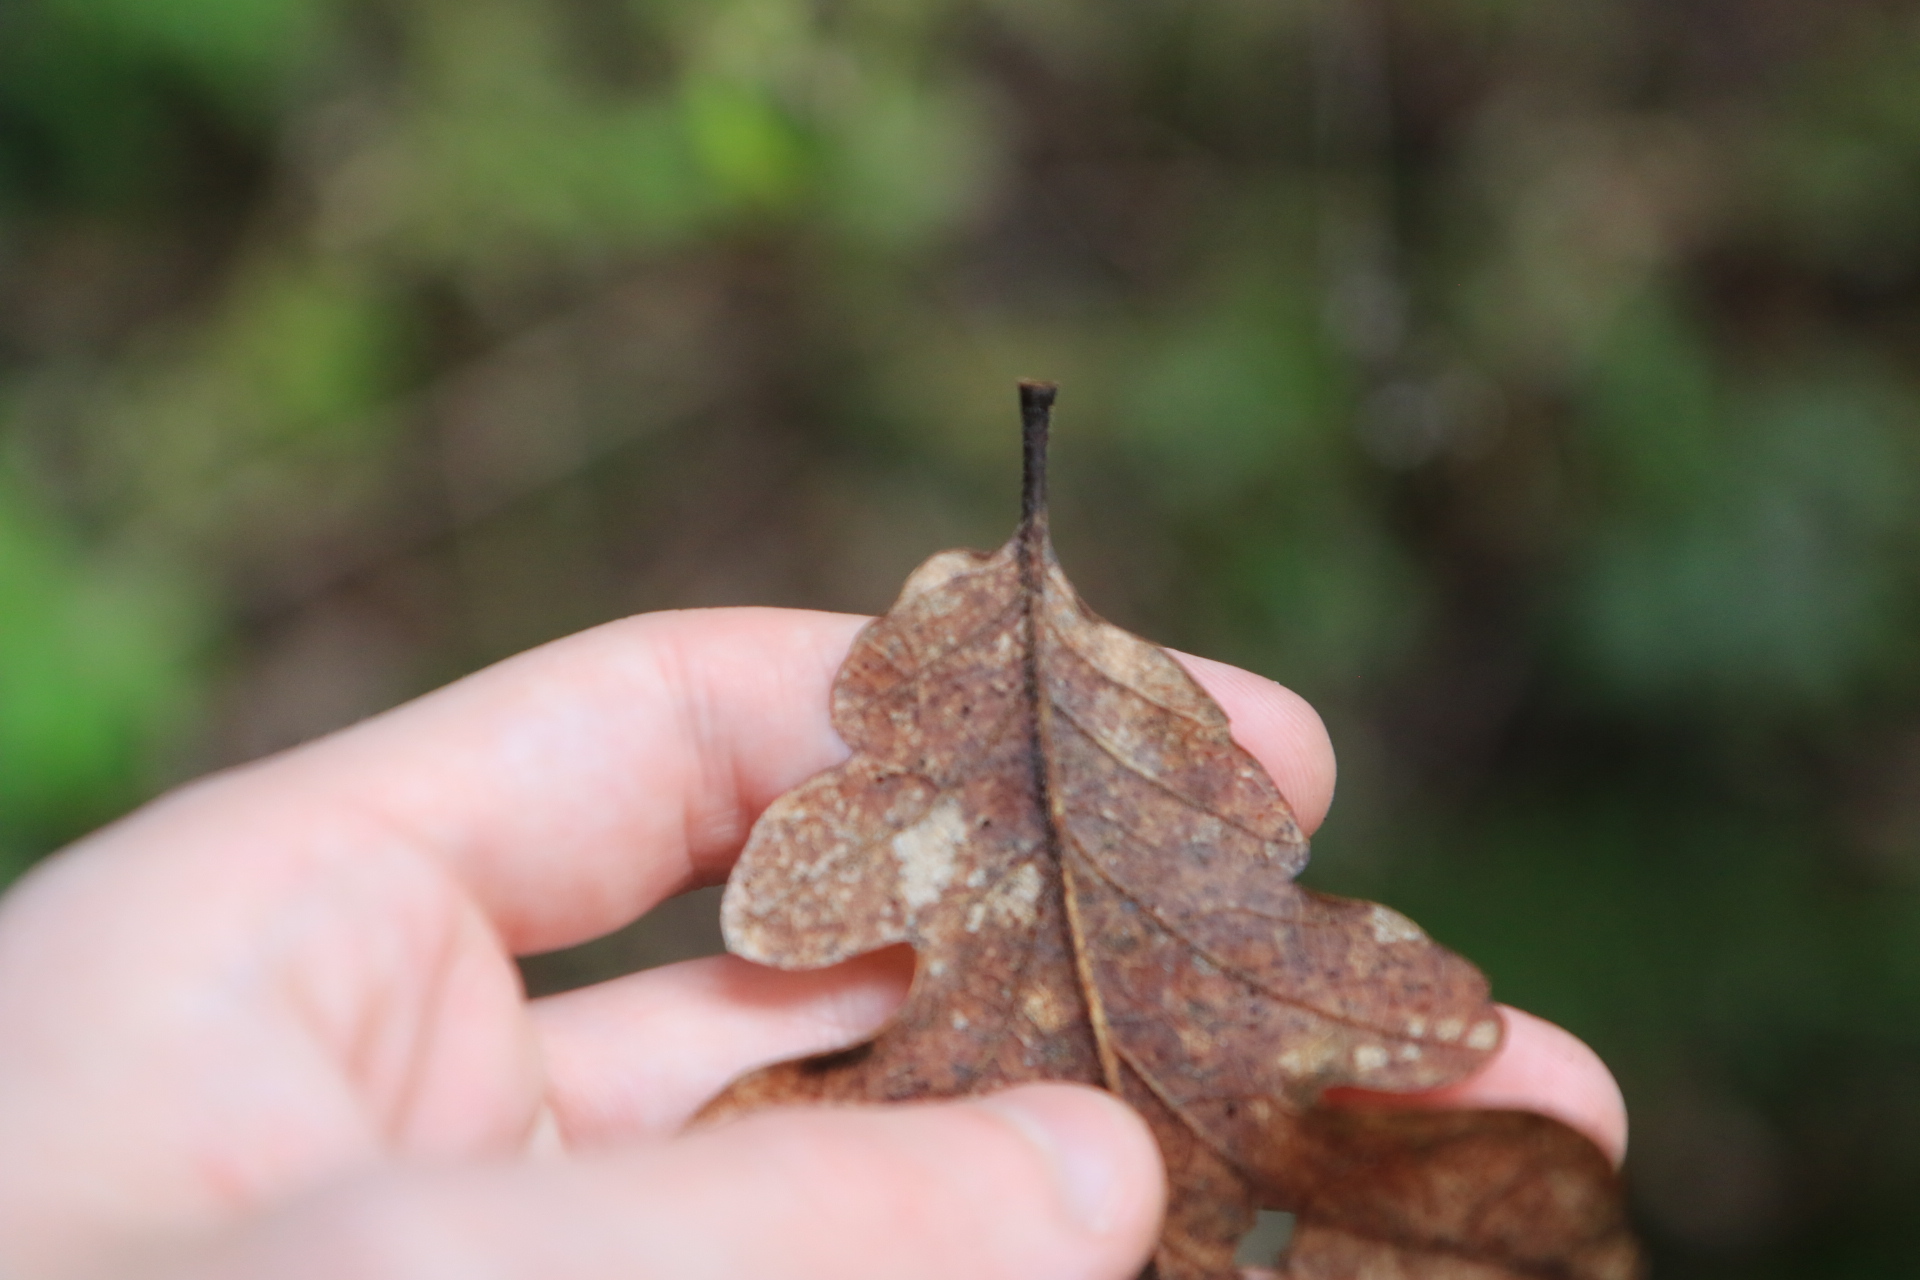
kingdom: Plantae
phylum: Tracheophyta
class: Magnoliopsida
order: Fagales
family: Fagaceae
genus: Quercus
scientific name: Quercus garryana
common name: Garry oak
